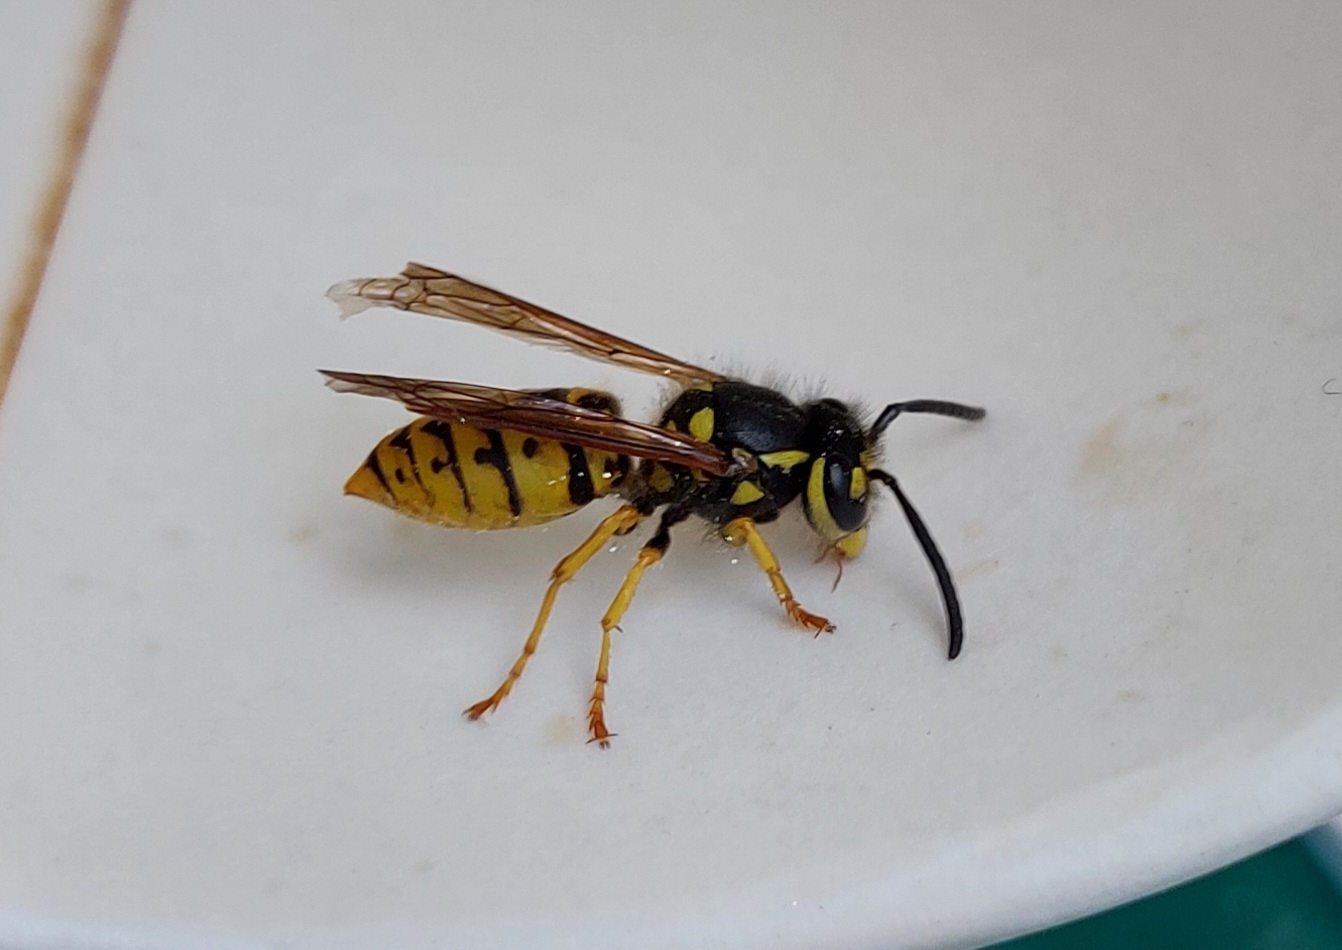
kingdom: Animalia
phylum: Arthropoda
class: Insecta
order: Hymenoptera
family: Vespidae
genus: Vespula
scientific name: Vespula germanica
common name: German wasp
